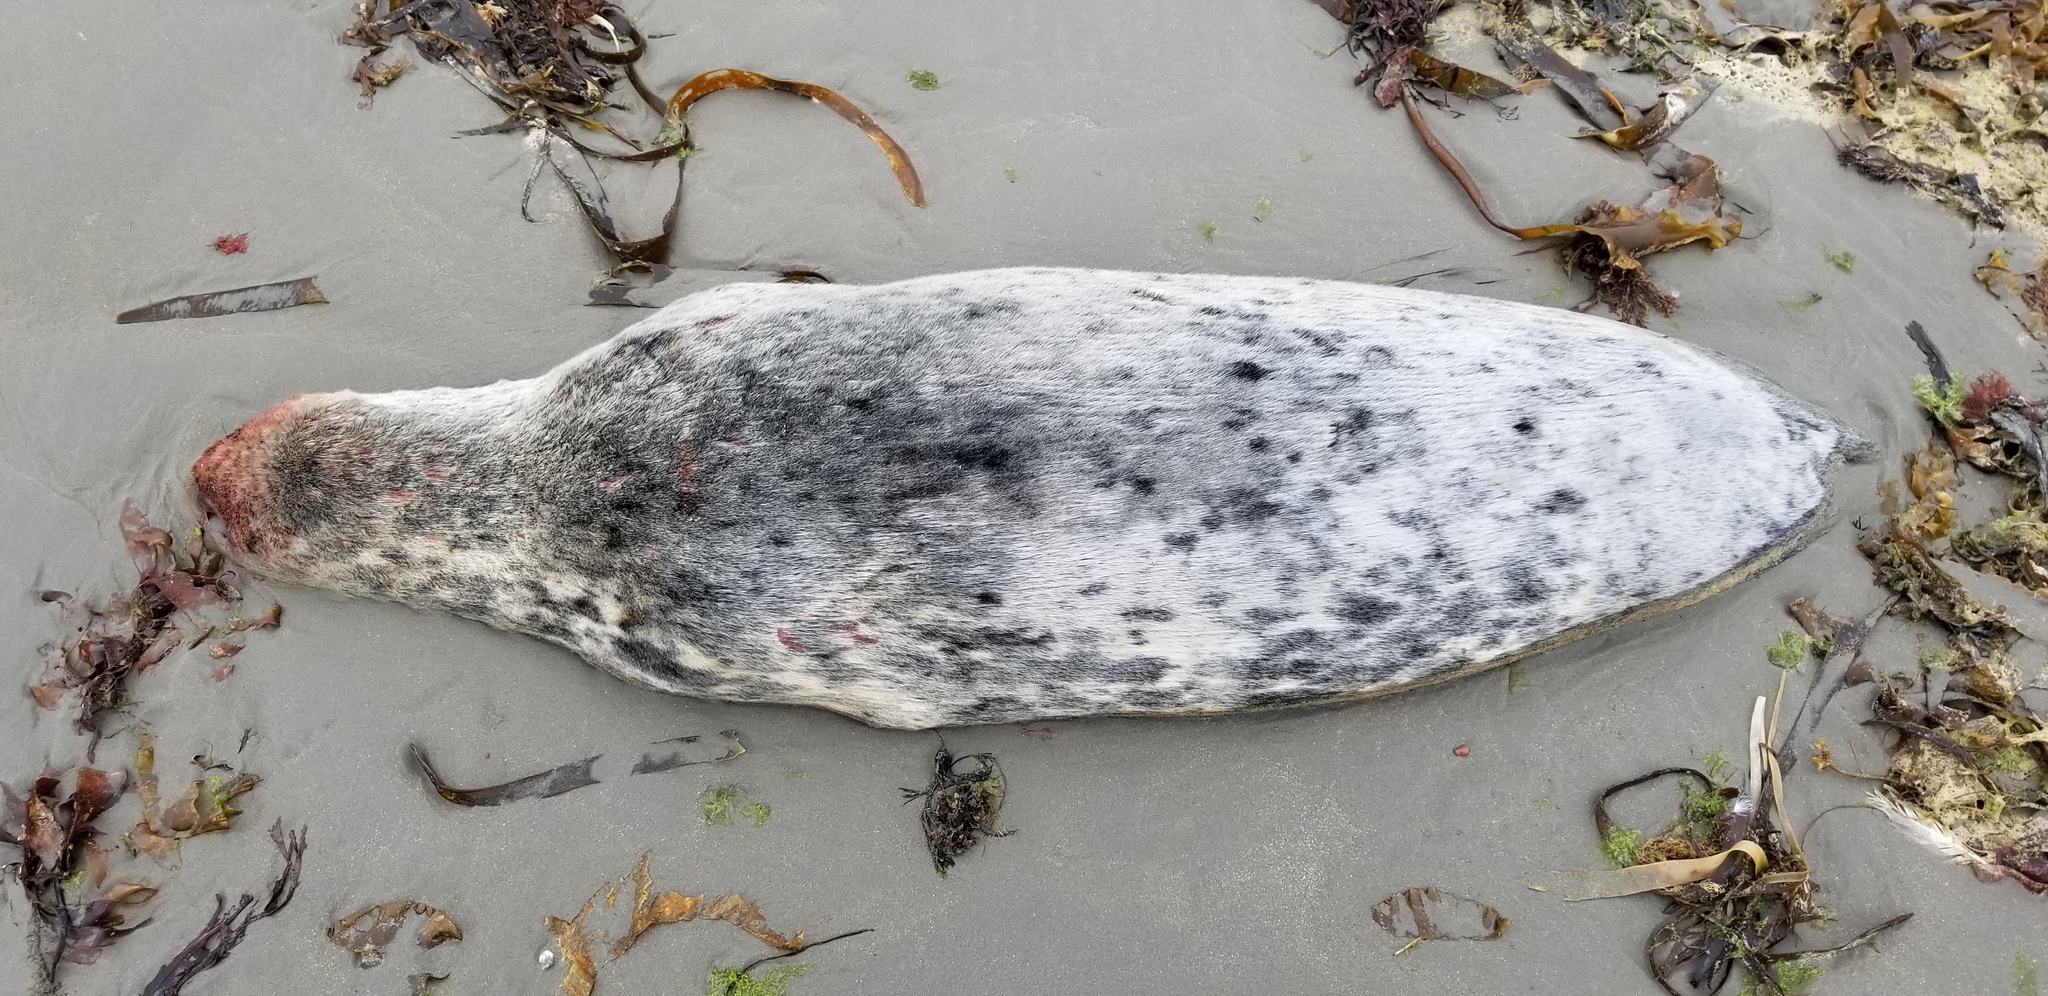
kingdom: Animalia
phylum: Chordata
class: Mammalia
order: Carnivora
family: Phocidae
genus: Halichoerus
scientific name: Halichoerus grypus
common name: Grey seal
